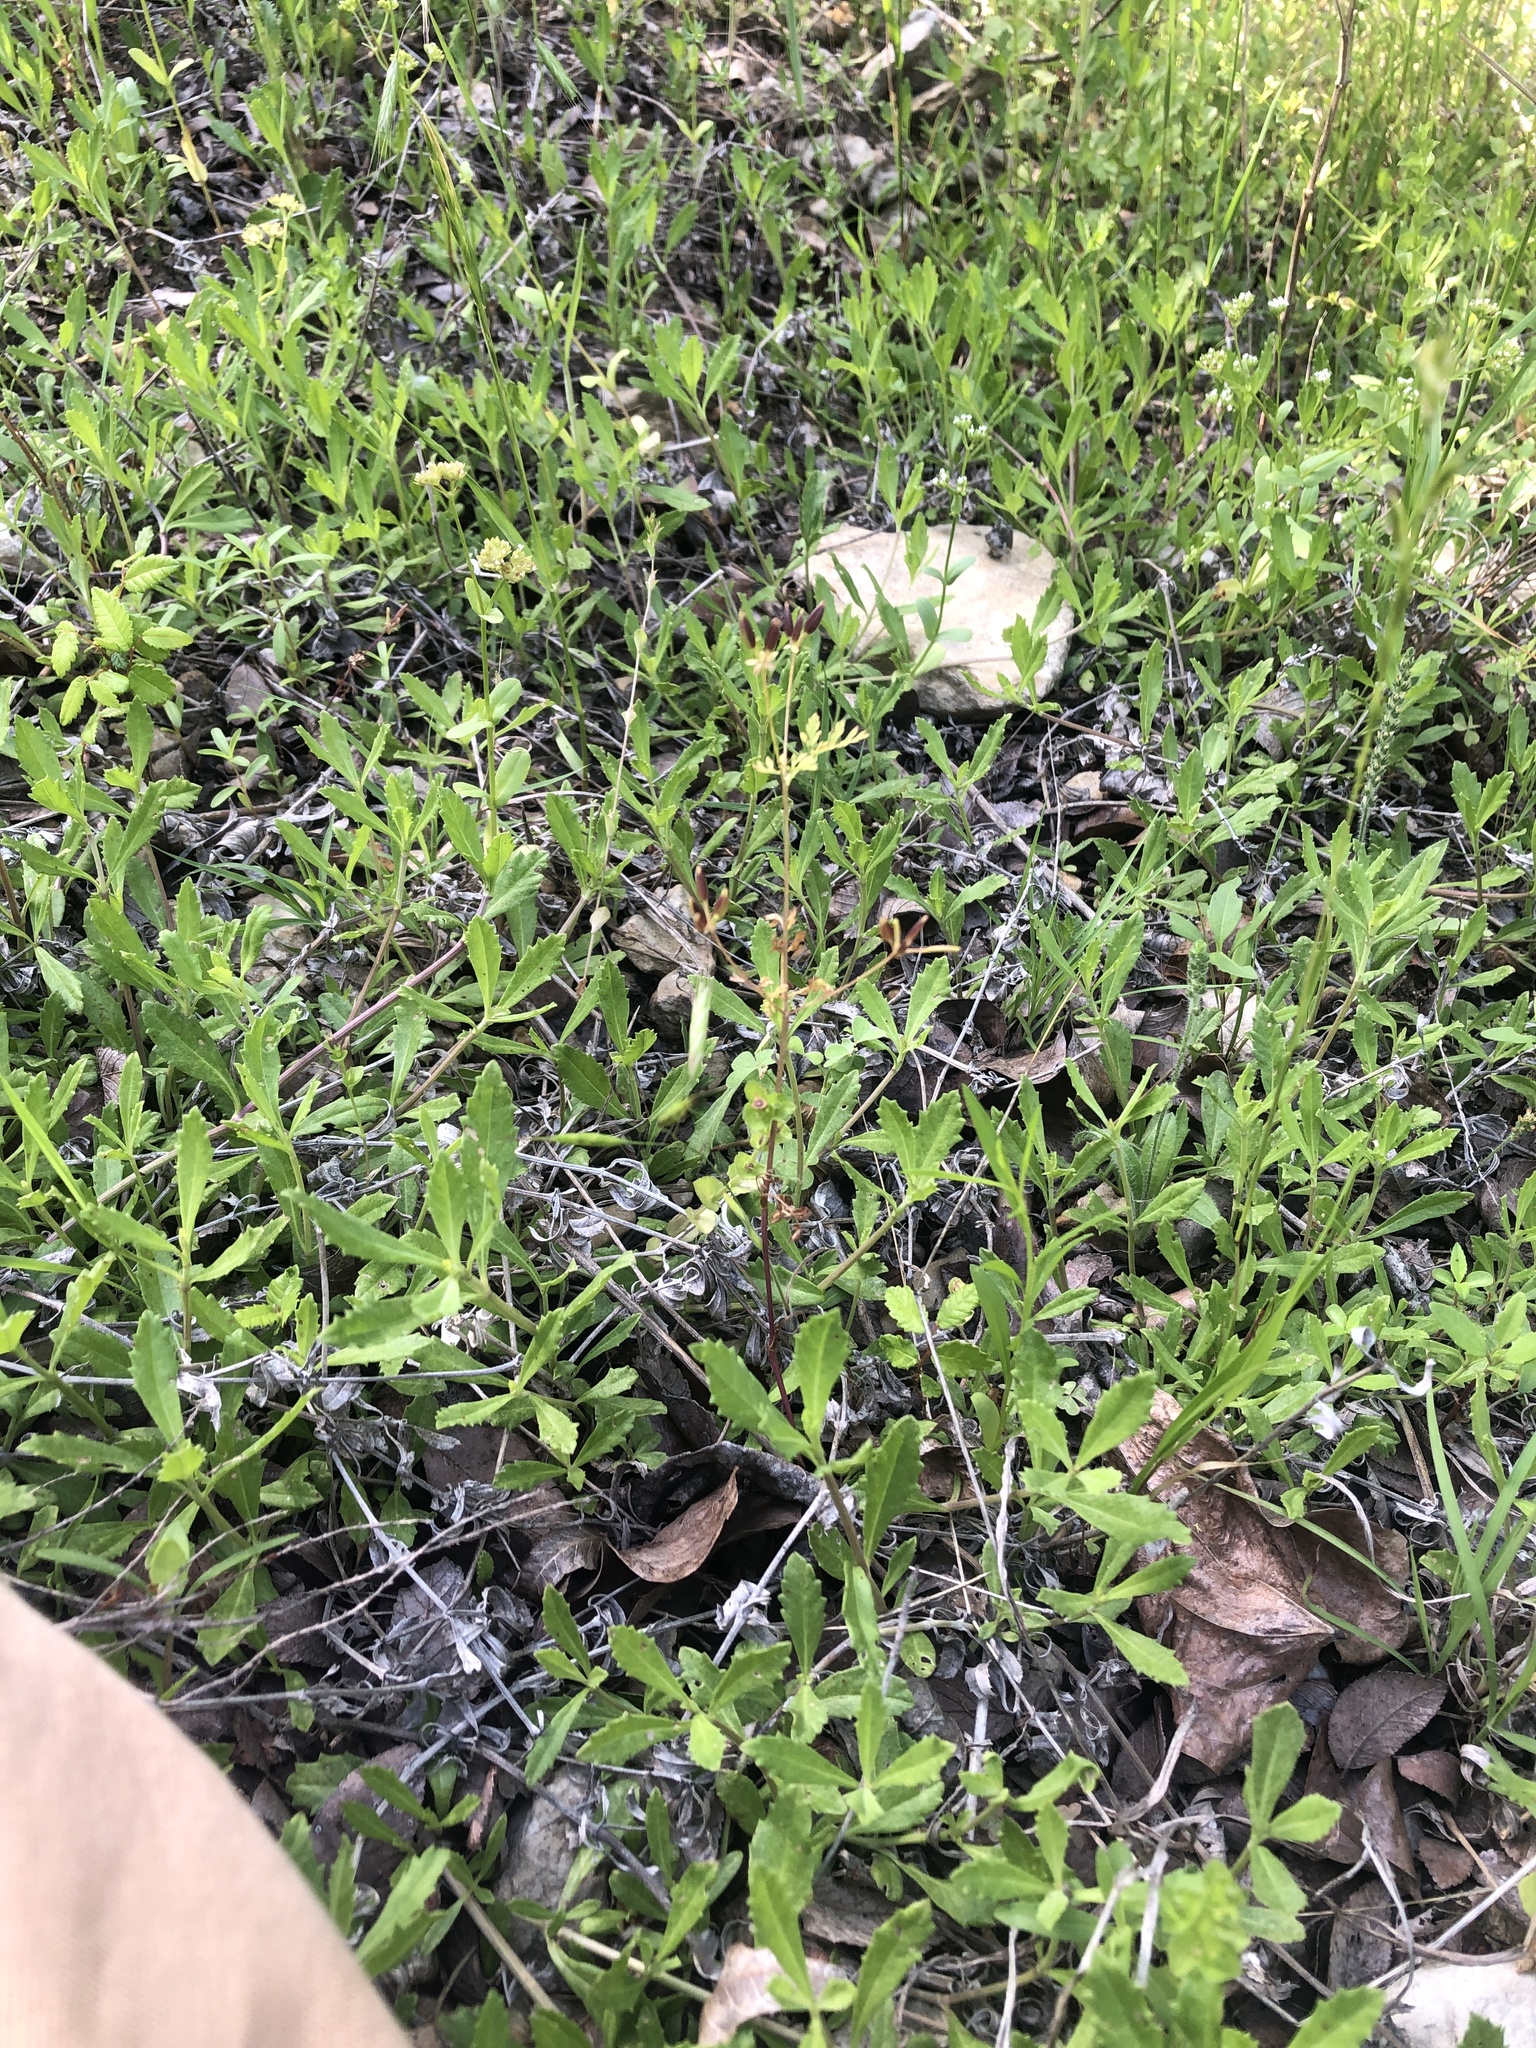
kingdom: Plantae
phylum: Tracheophyta
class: Magnoliopsida
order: Apiales
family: Apiaceae
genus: Chaerophyllum
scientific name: Chaerophyllum tainturieri
